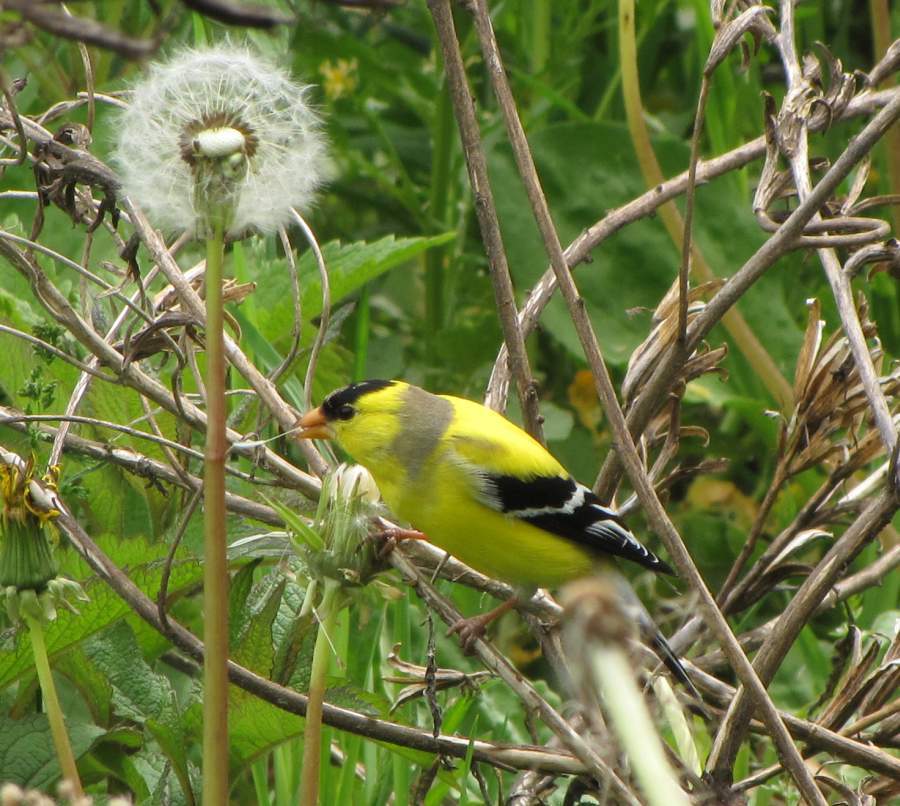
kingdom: Animalia
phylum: Chordata
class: Aves
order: Passeriformes
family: Fringillidae
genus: Spinus
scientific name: Spinus tristis
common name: American goldfinch
